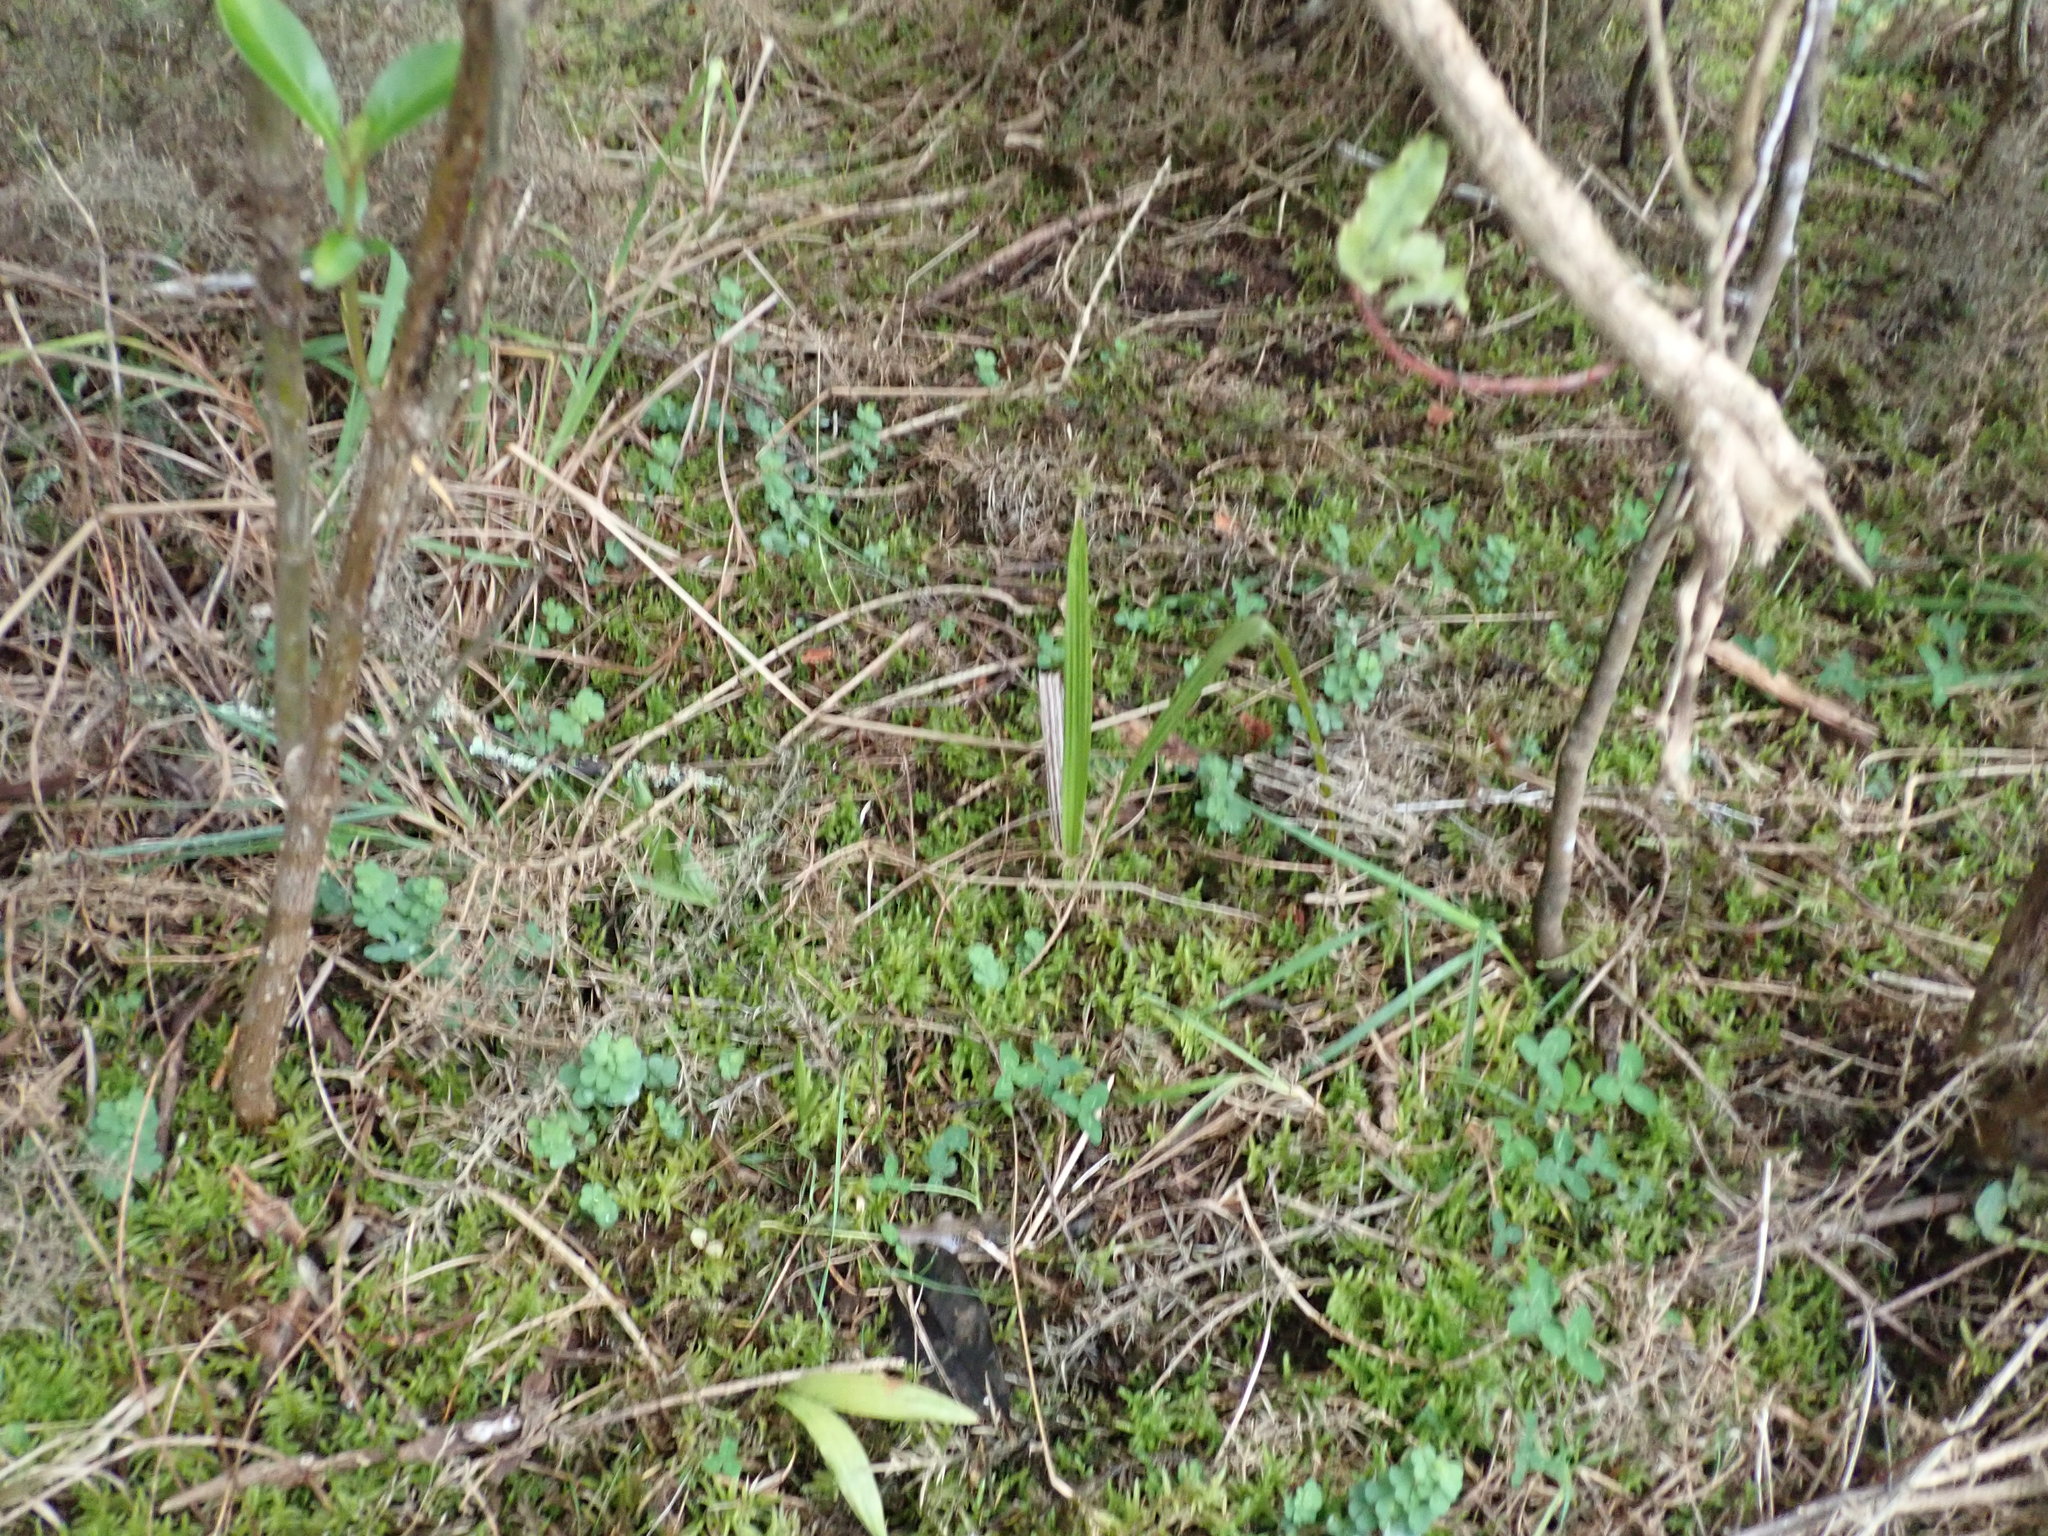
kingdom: Plantae
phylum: Tracheophyta
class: Liliopsida
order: Arecales
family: Arecaceae
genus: Phoenix
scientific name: Phoenix canariensis
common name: Canary island date palm
